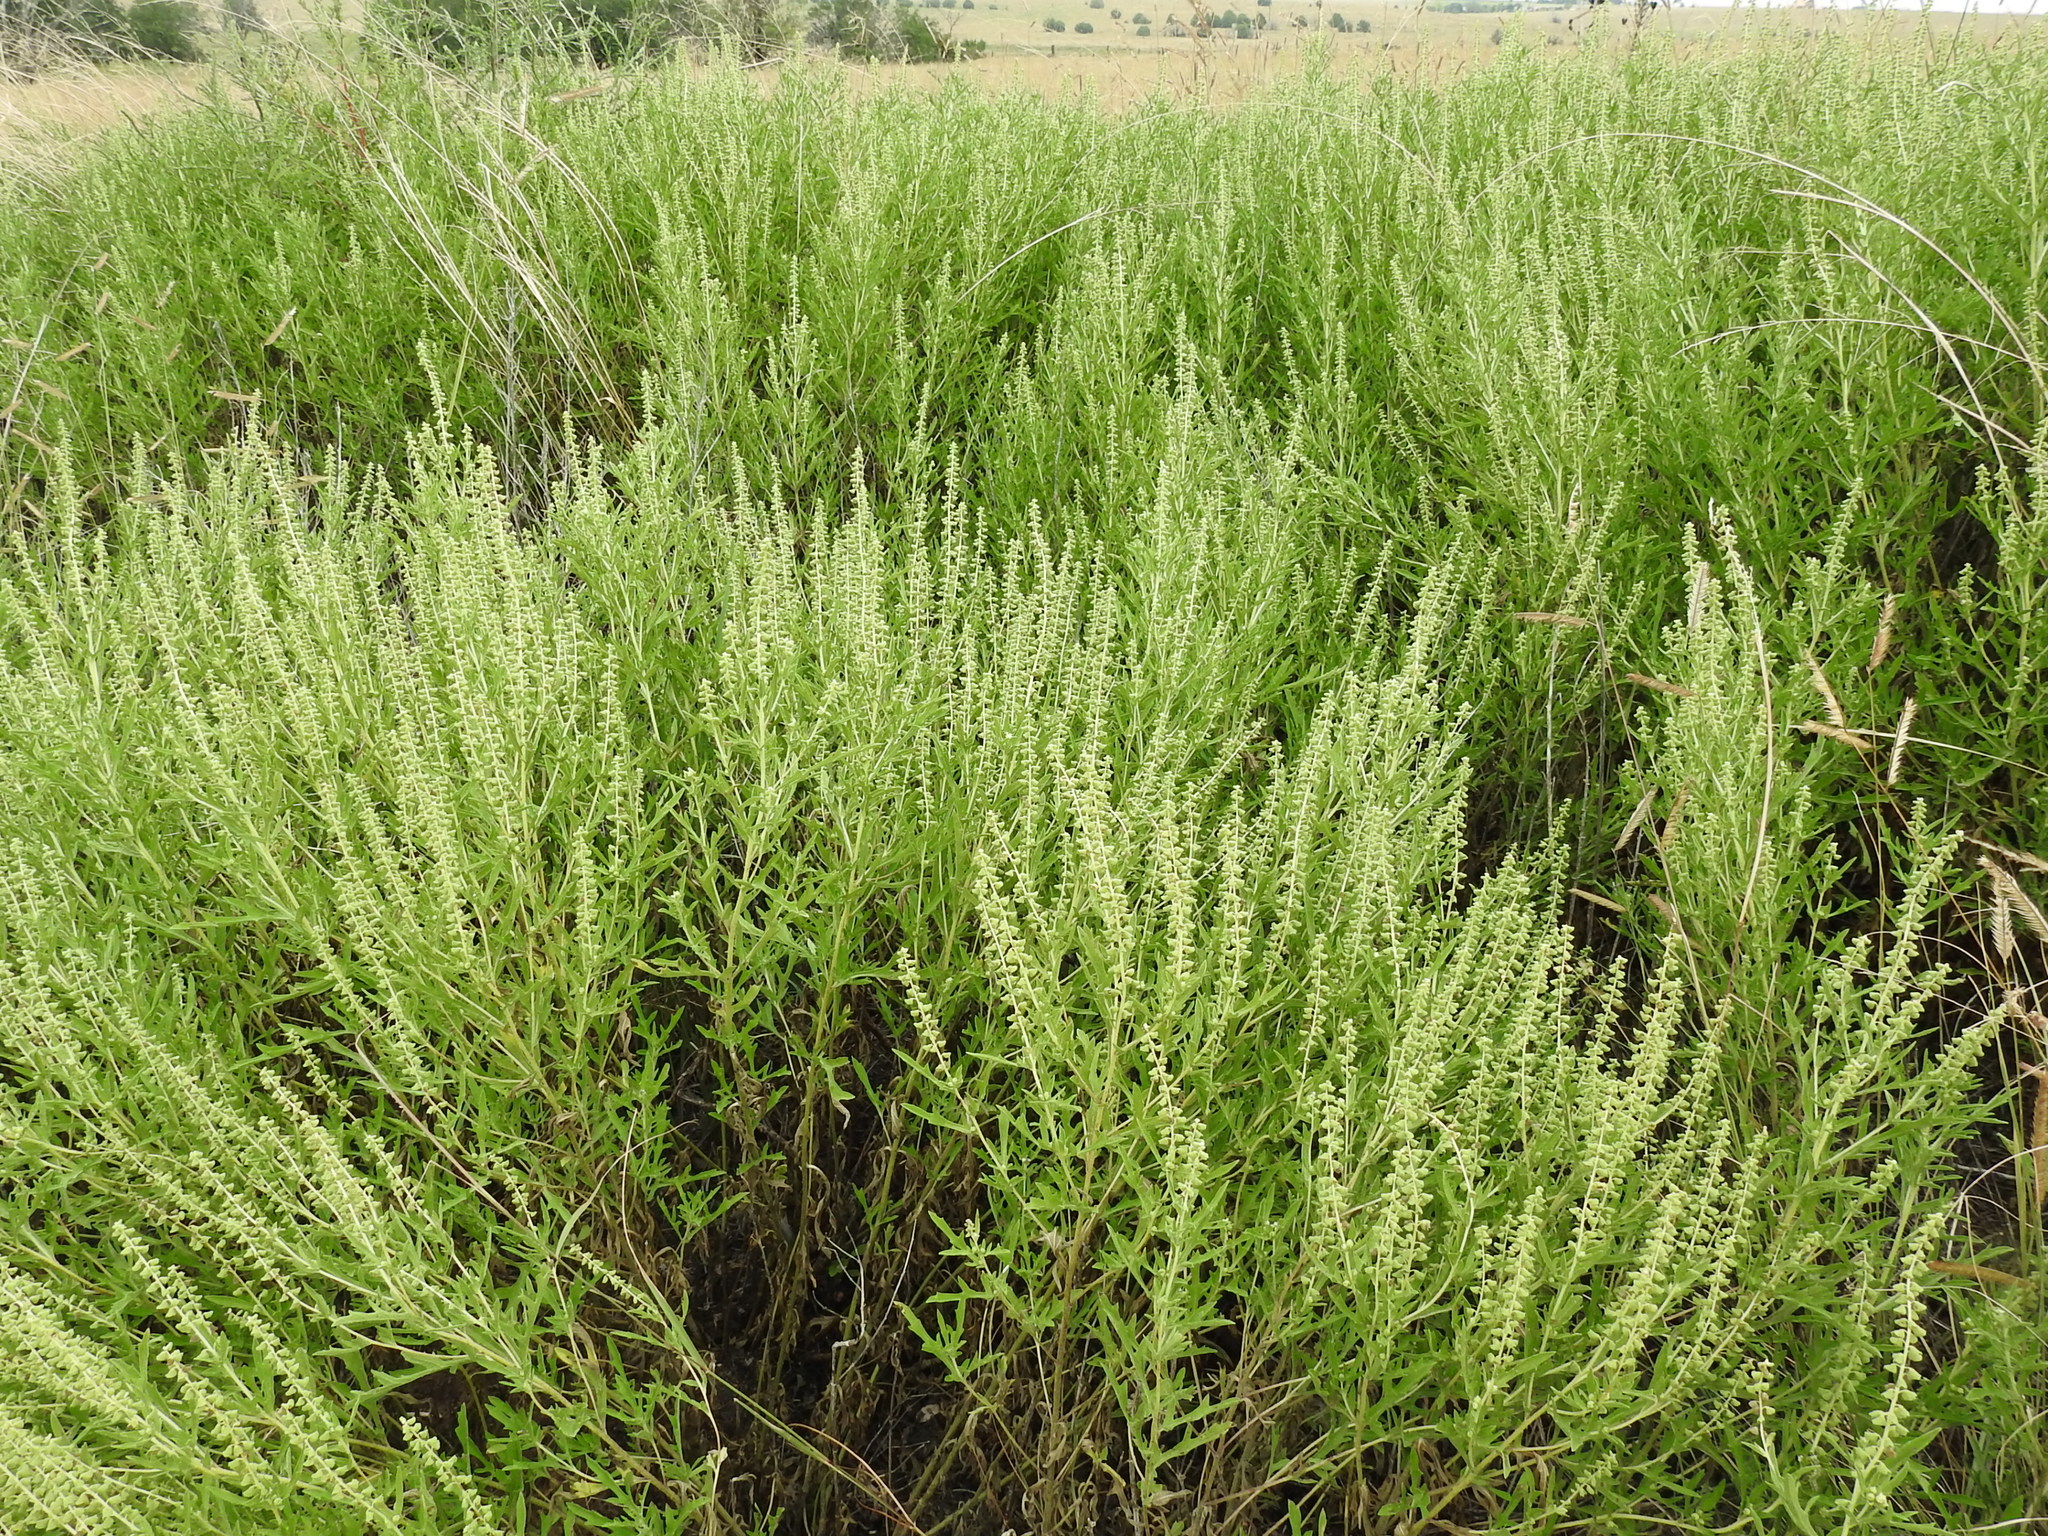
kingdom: Plantae
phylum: Tracheophyta
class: Magnoliopsida
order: Asterales
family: Asteraceae
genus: Ambrosia
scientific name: Ambrosia psilostachya
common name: Perennial ragweed
